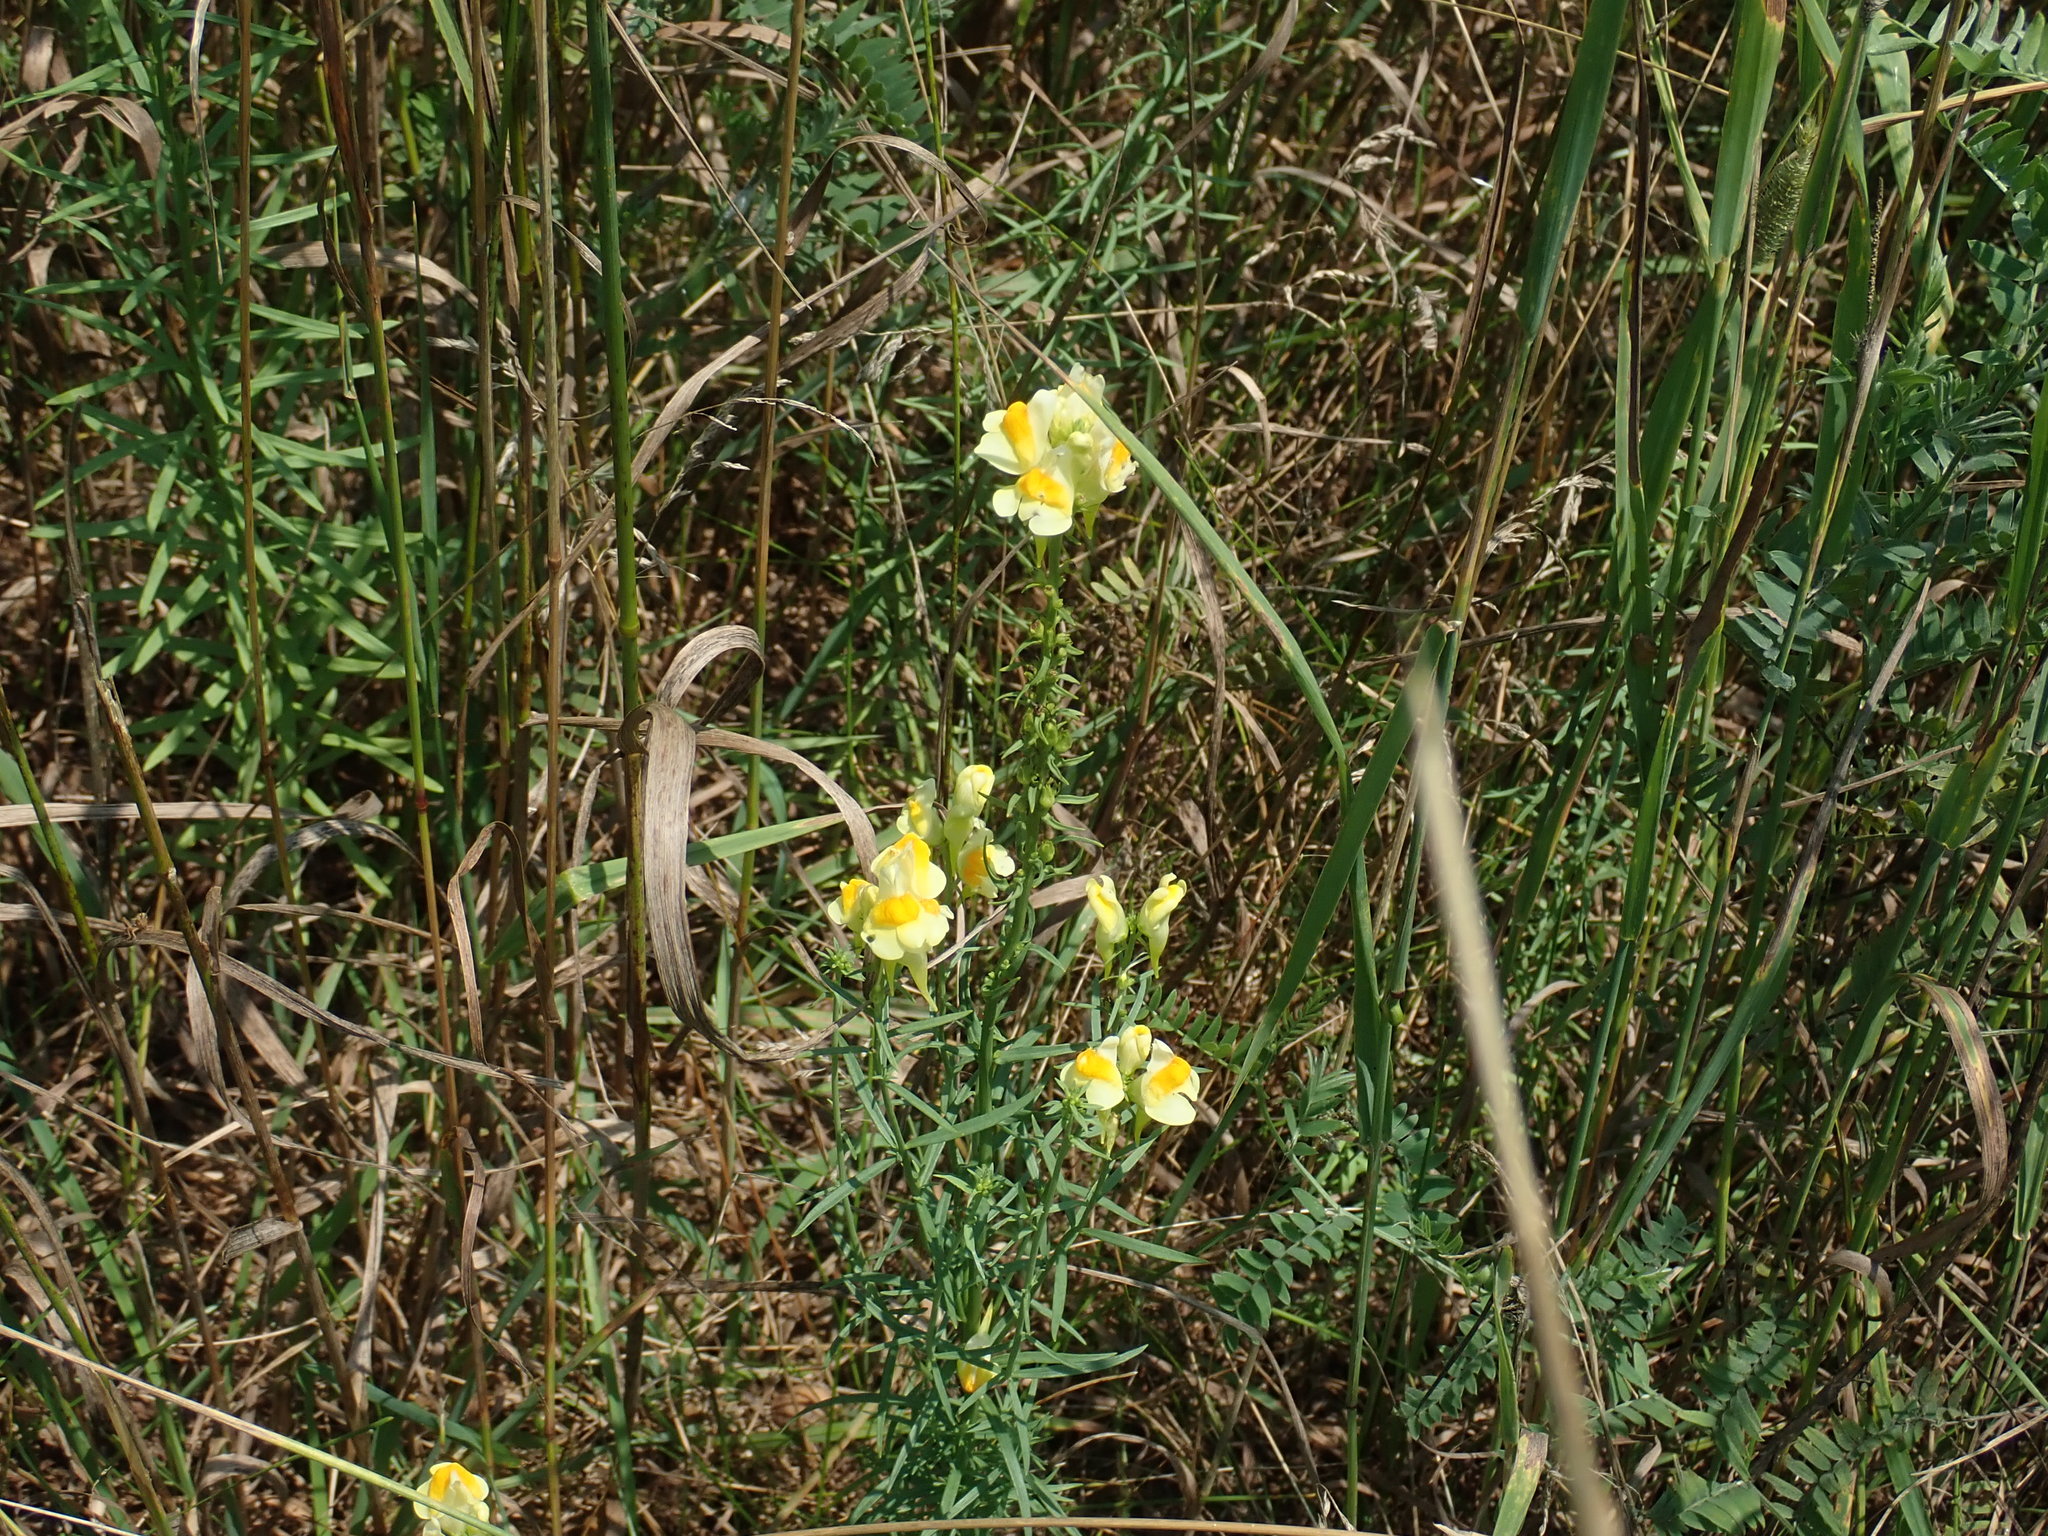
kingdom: Plantae
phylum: Tracheophyta
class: Magnoliopsida
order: Lamiales
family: Plantaginaceae
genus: Linaria
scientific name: Linaria vulgaris
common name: Butter and eggs
